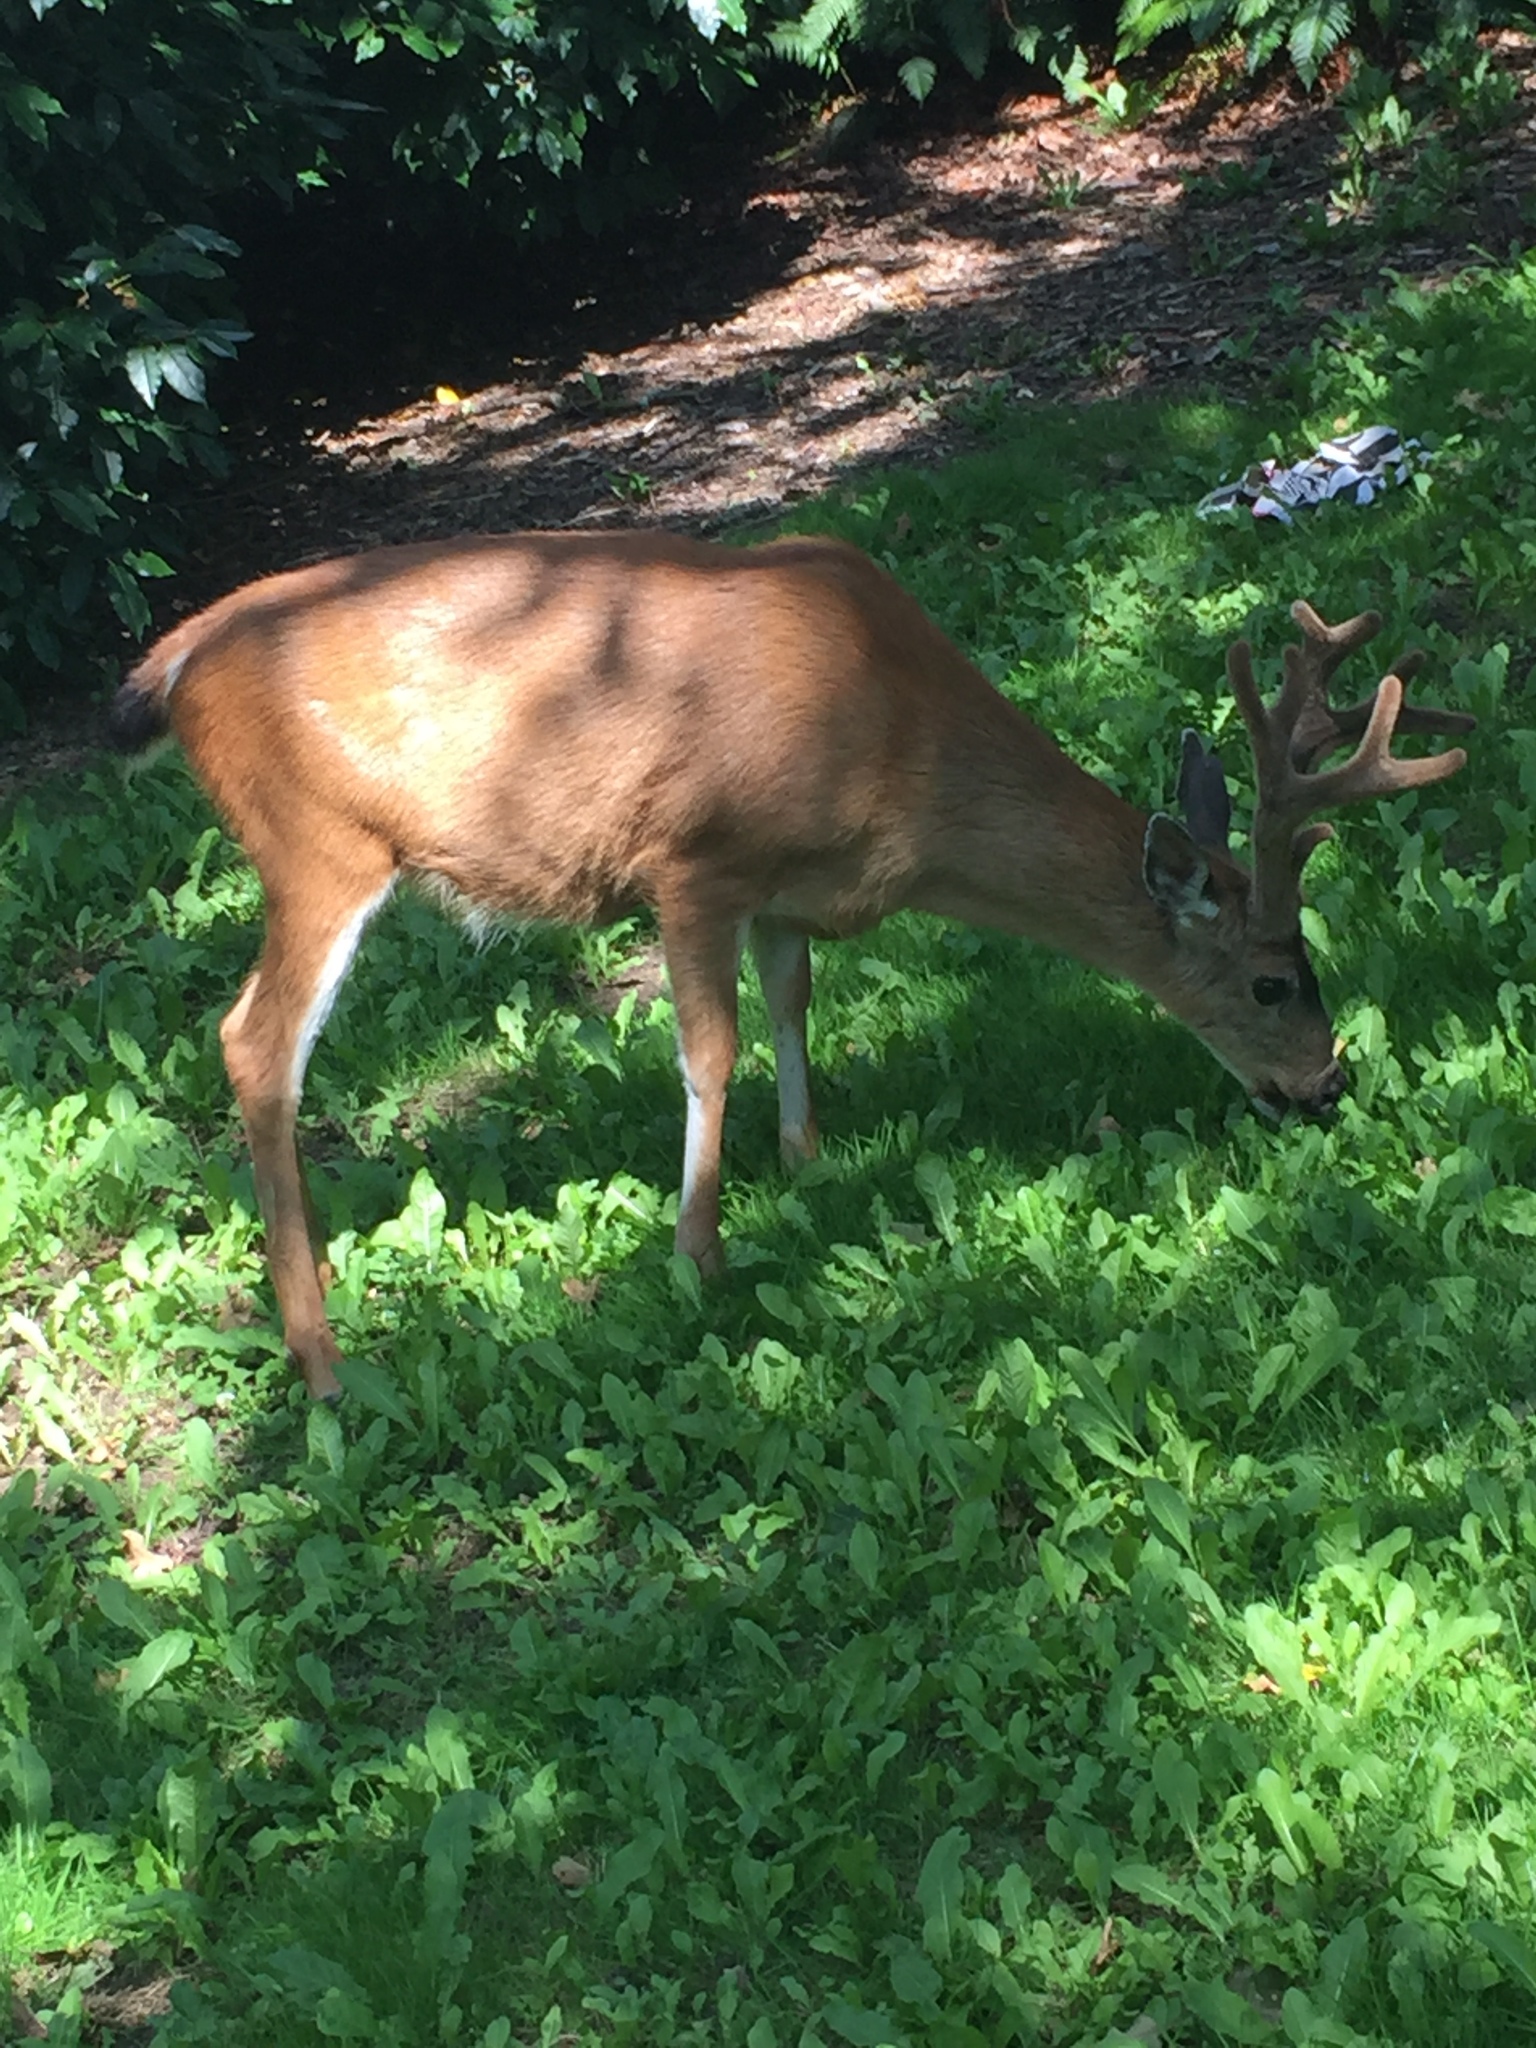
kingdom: Animalia
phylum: Chordata
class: Mammalia
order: Artiodactyla
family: Cervidae
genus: Odocoileus
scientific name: Odocoileus hemionus
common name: Mule deer
